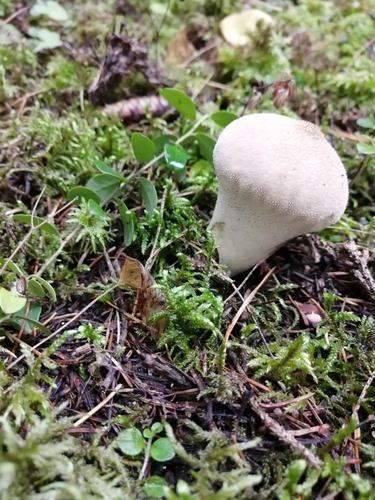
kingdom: Fungi
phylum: Basidiomycota
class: Agaricomycetes
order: Agaricales
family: Lycoperdaceae
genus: Lycoperdon
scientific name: Lycoperdon perlatum
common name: Common puffball
